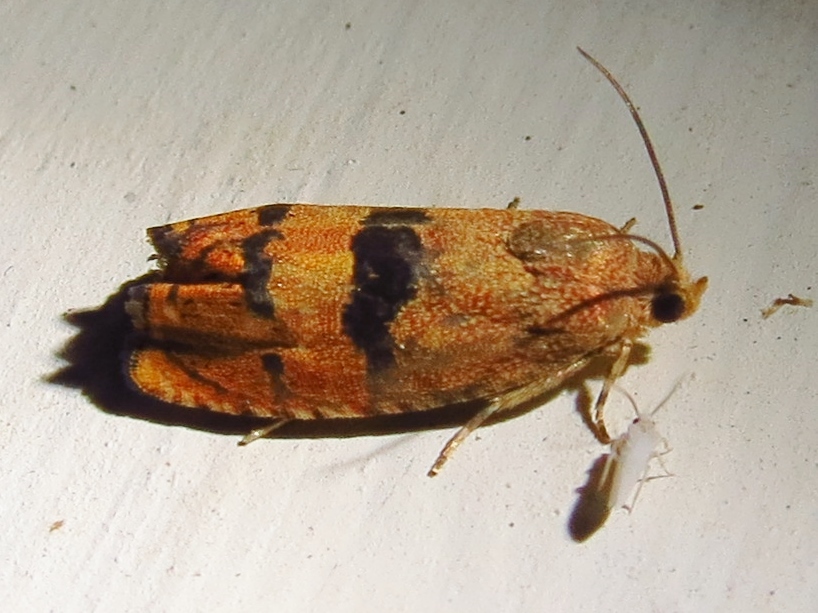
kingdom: Animalia
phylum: Arthropoda
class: Insecta
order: Lepidoptera
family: Tortricidae
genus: Cydia
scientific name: Cydia latiferreana
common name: Filbertworm moth
